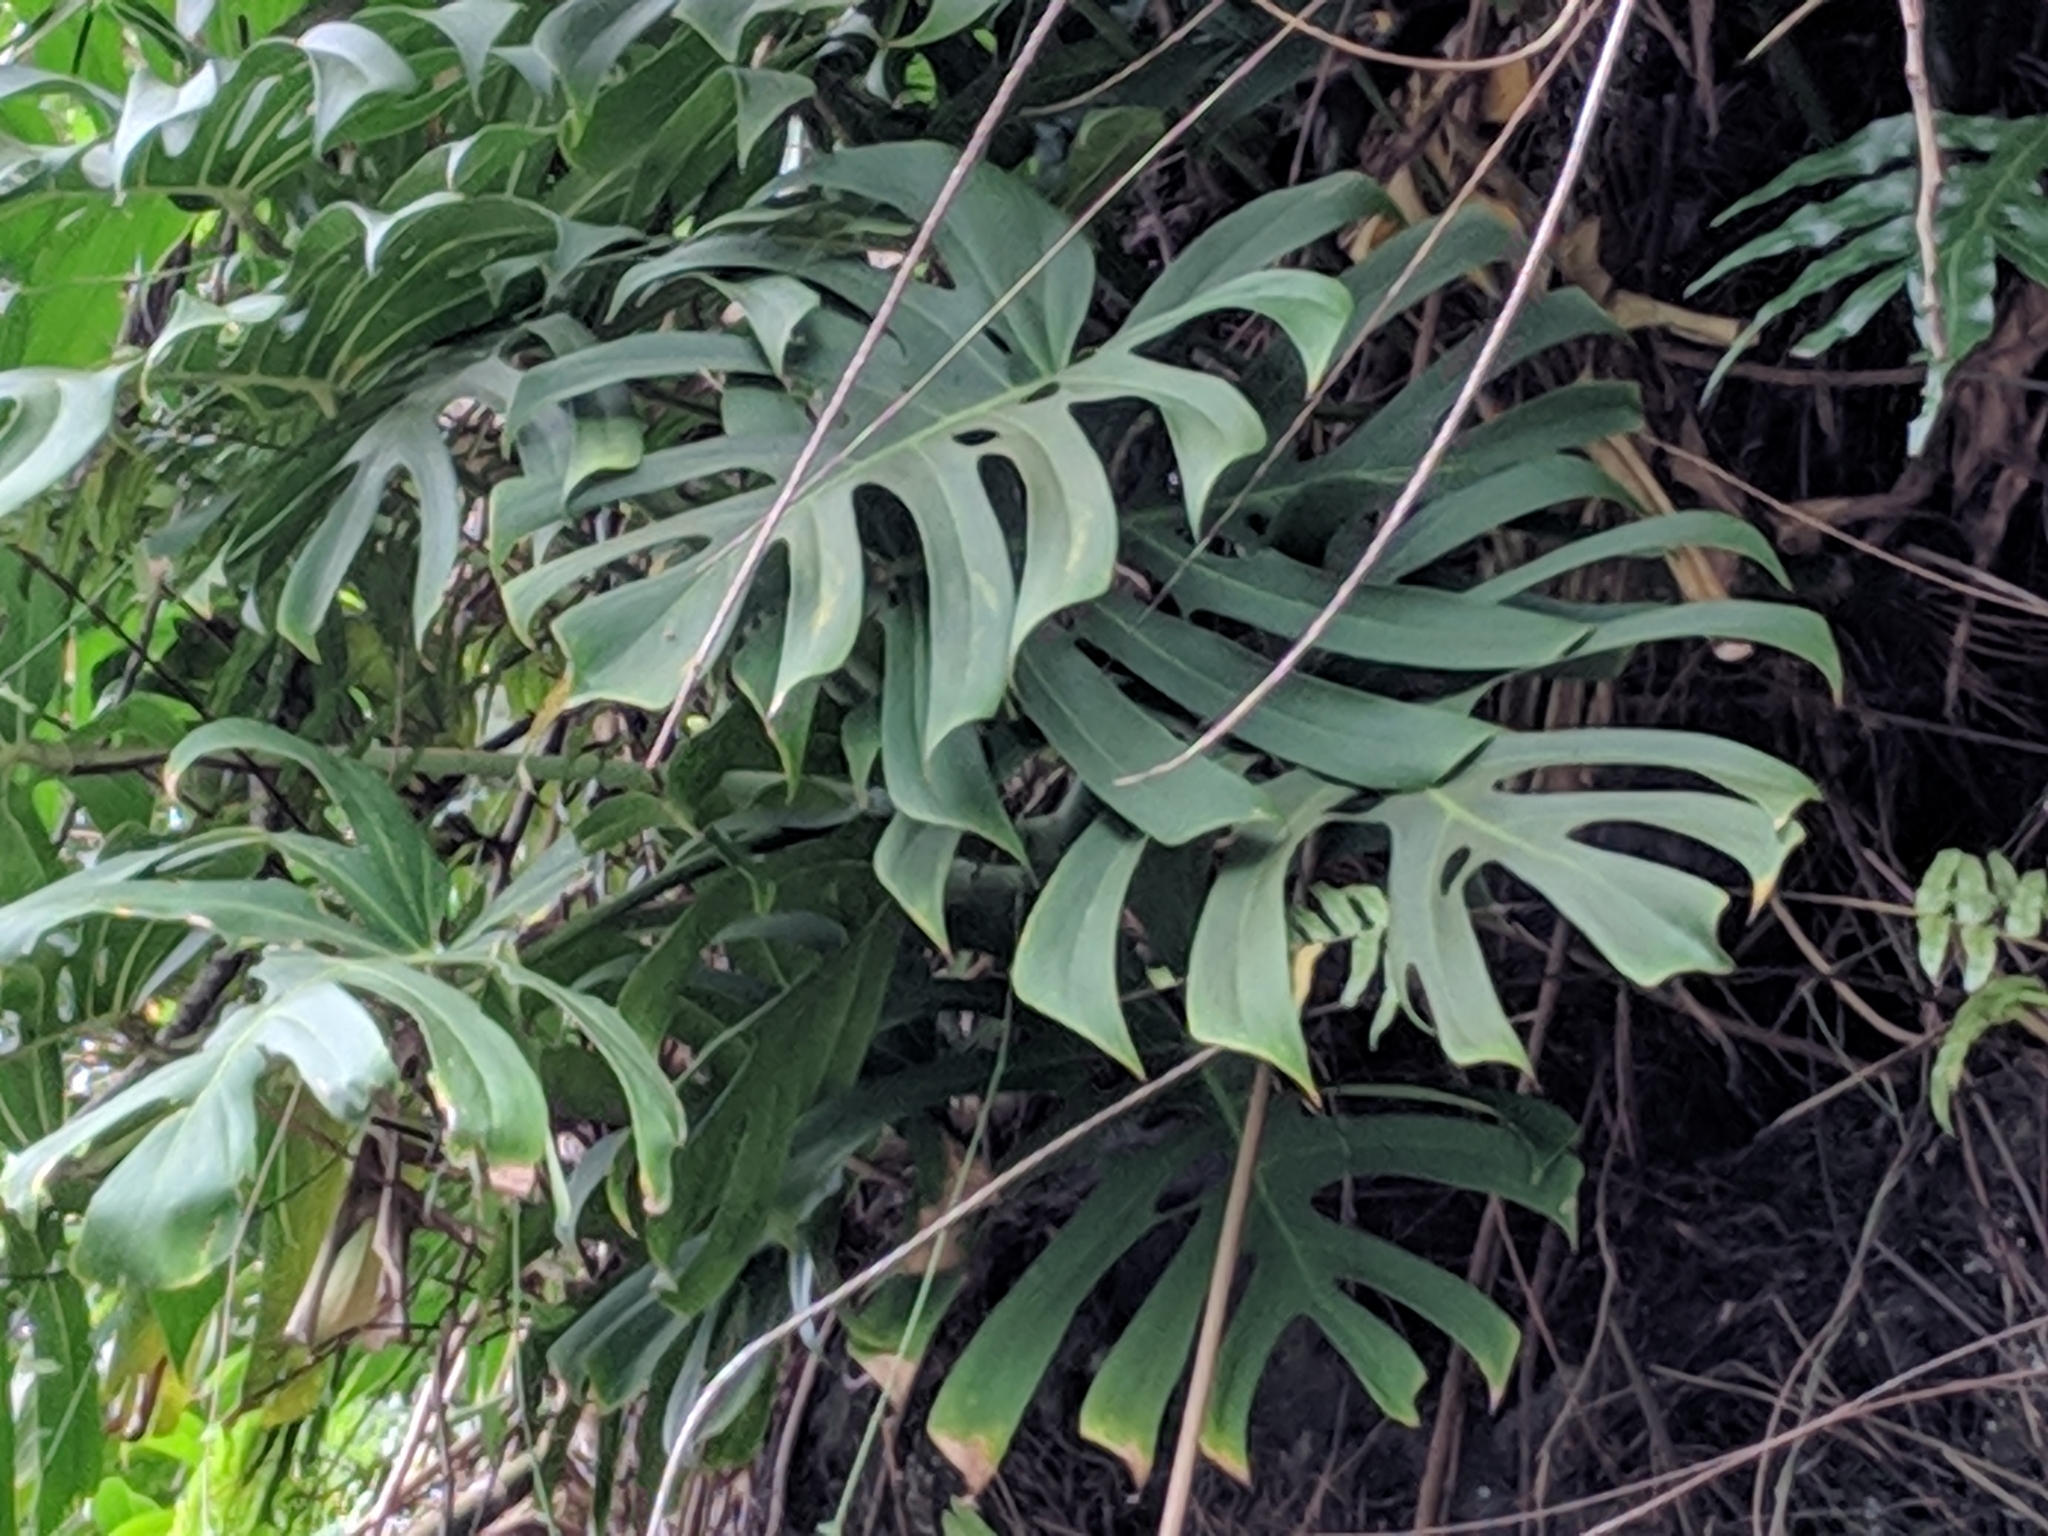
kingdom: Plantae
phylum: Tracheophyta
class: Liliopsida
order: Alismatales
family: Araceae
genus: Monstera
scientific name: Monstera deliciosa
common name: Cut-leaf-philodendron
